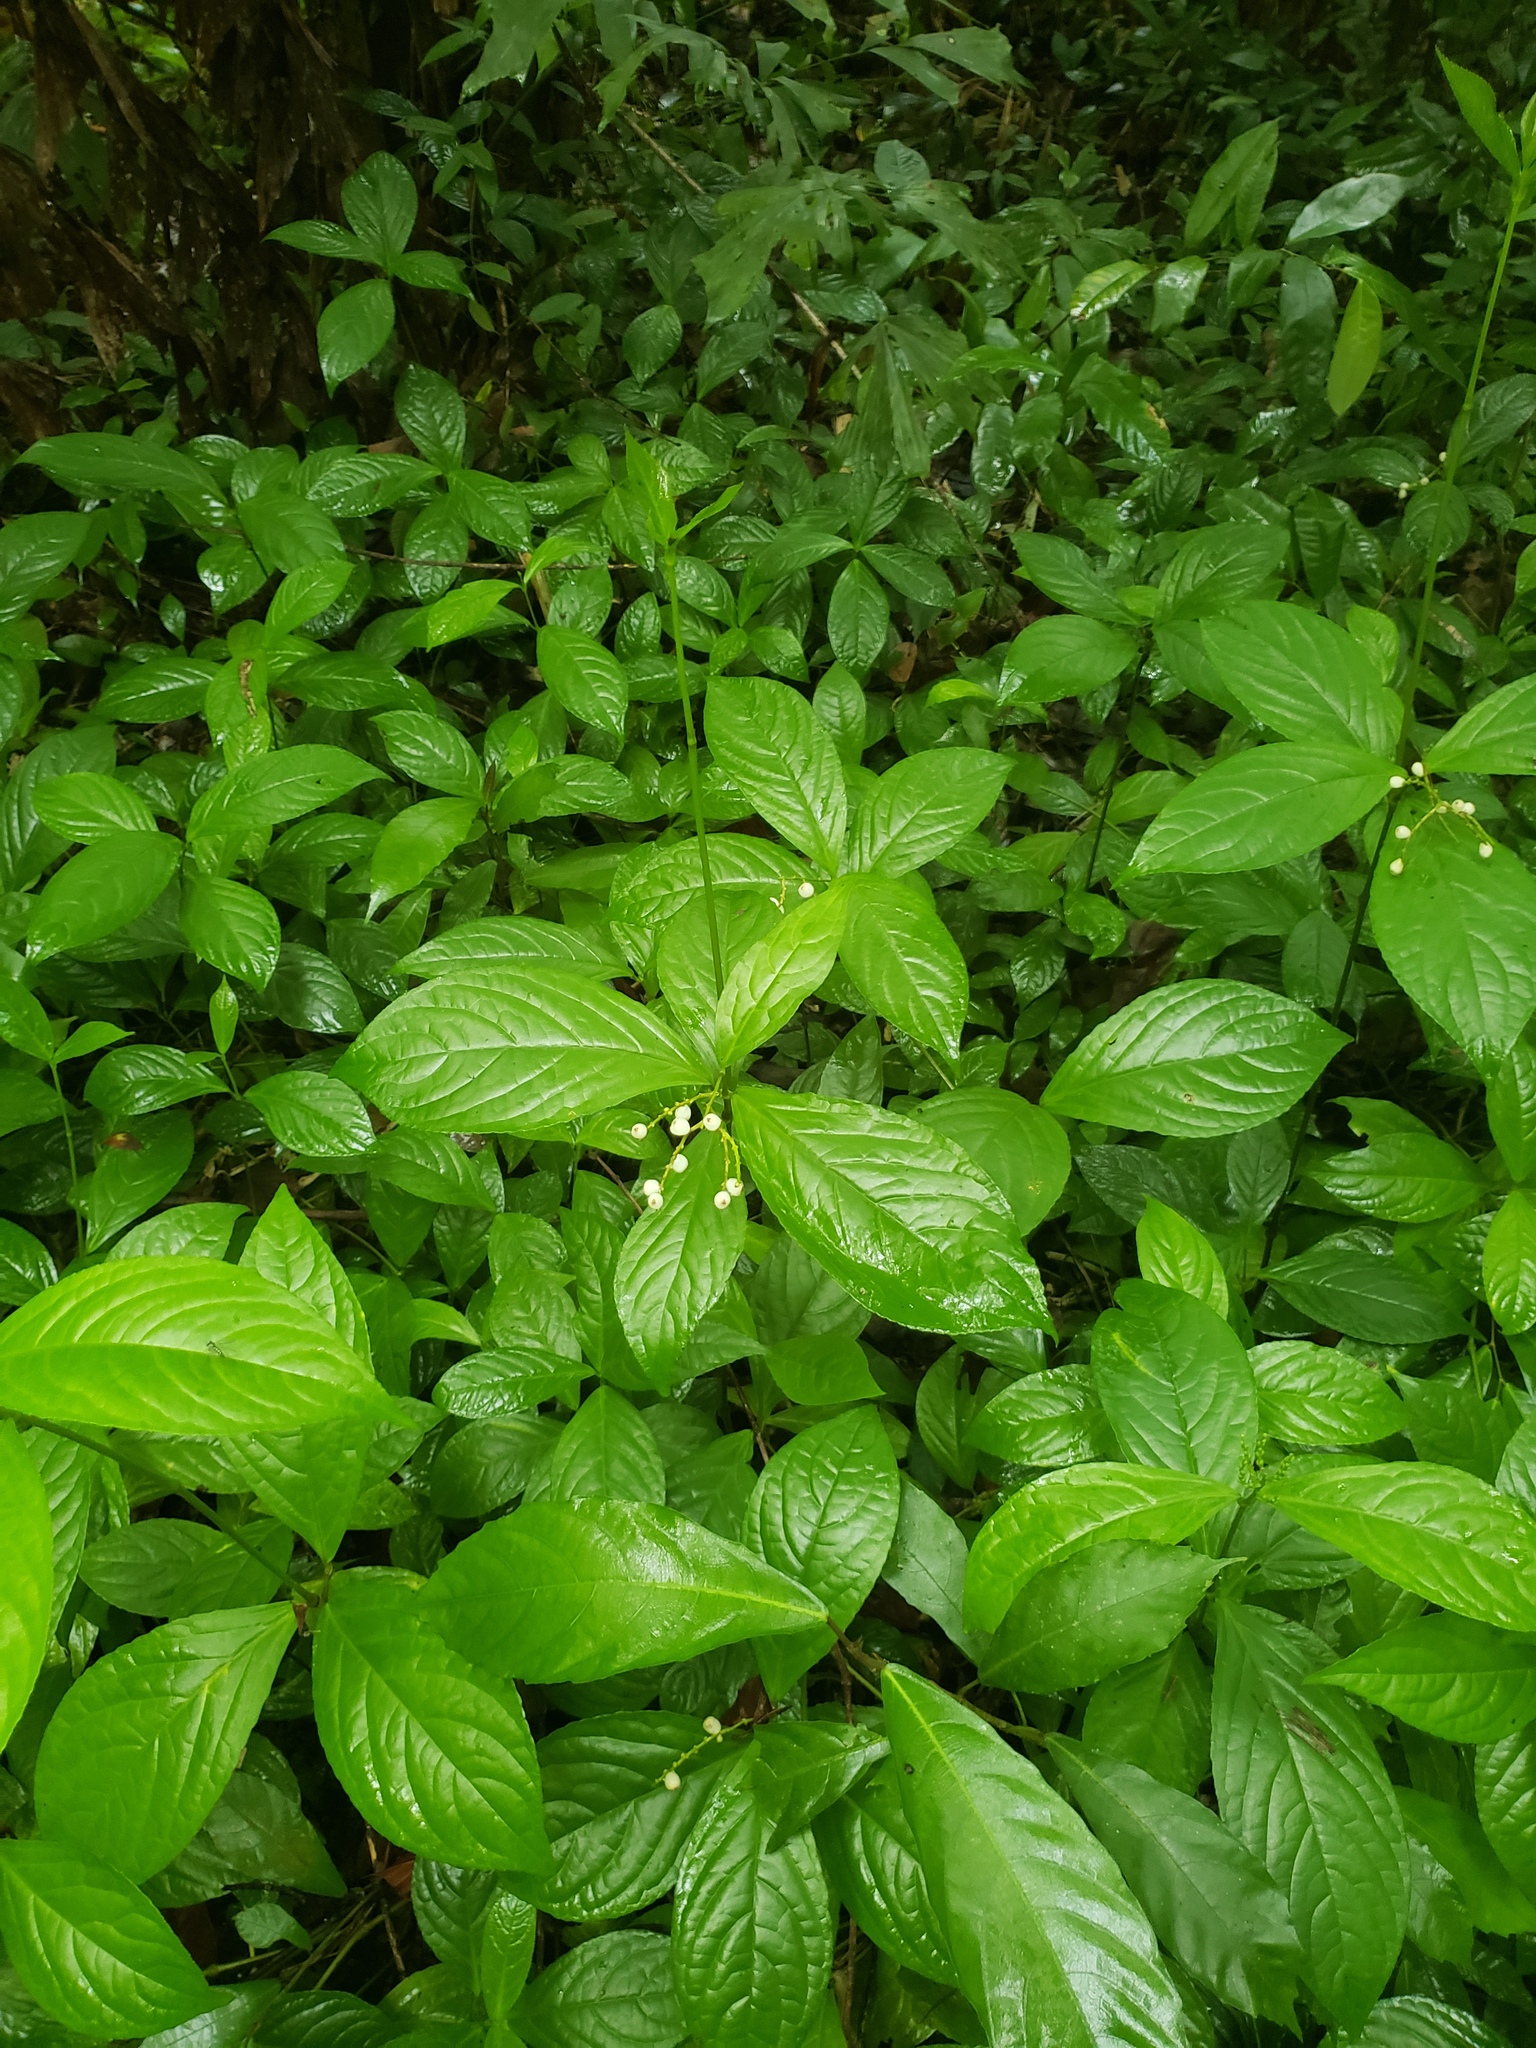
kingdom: Plantae
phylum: Tracheophyta
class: Magnoliopsida
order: Chloranthales
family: Chloranthaceae
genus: Chloranthus
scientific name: Chloranthus elatior
